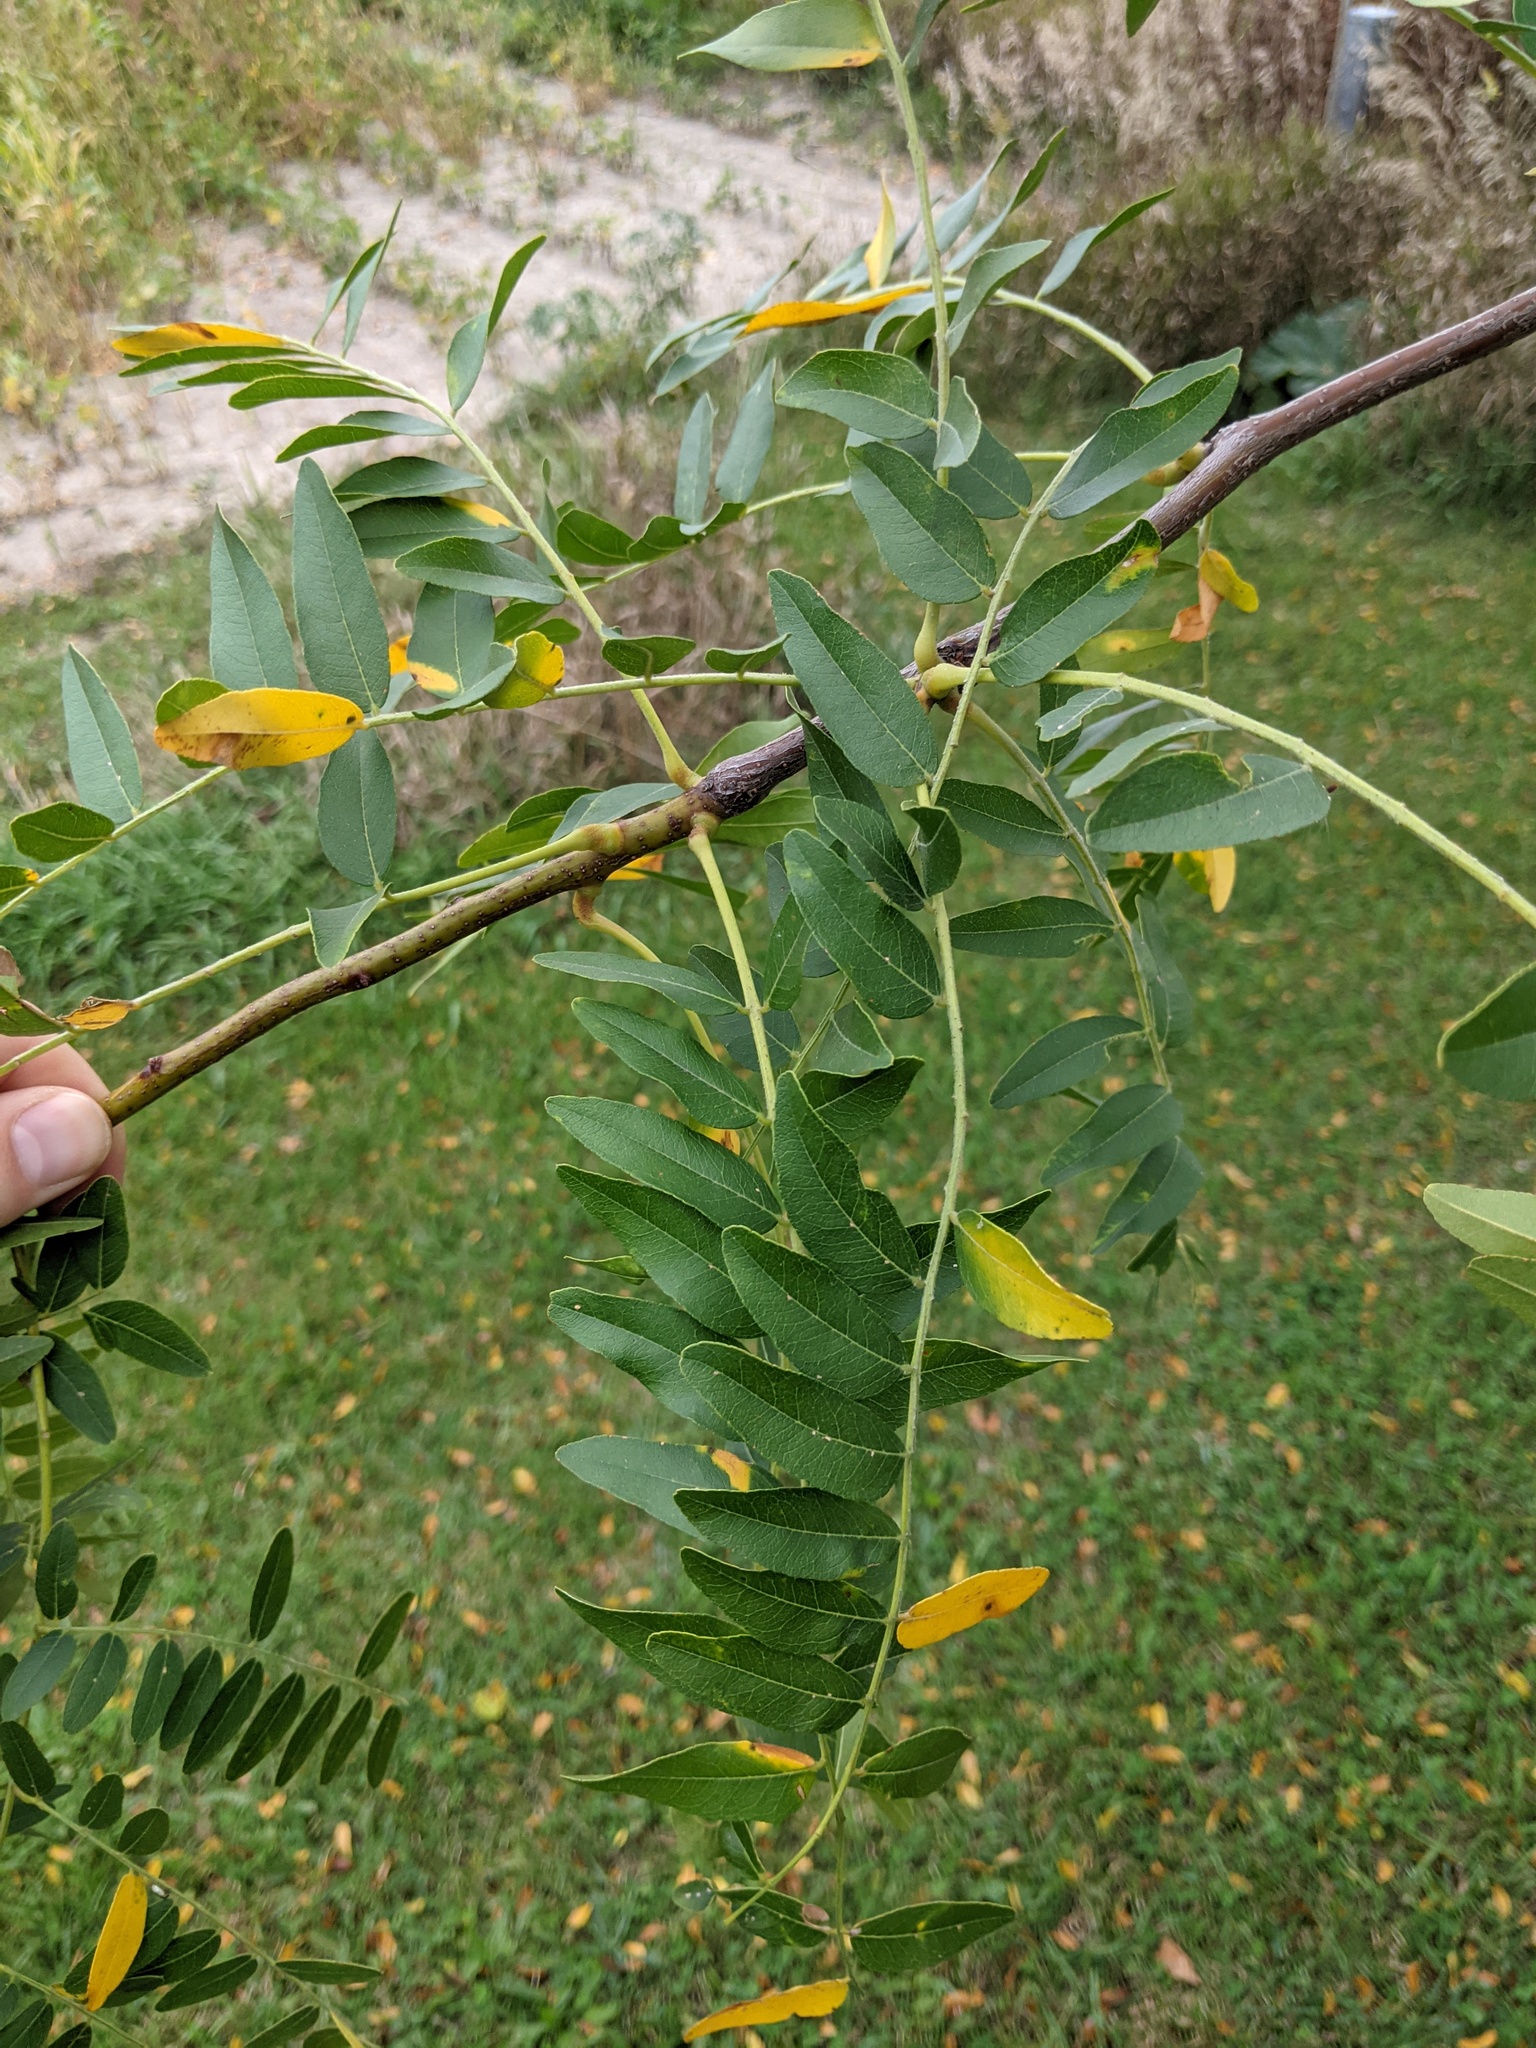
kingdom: Plantae
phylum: Tracheophyta
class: Magnoliopsida
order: Fabales
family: Fabaceae
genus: Gleditsia
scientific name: Gleditsia triacanthos
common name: Common honeylocust
